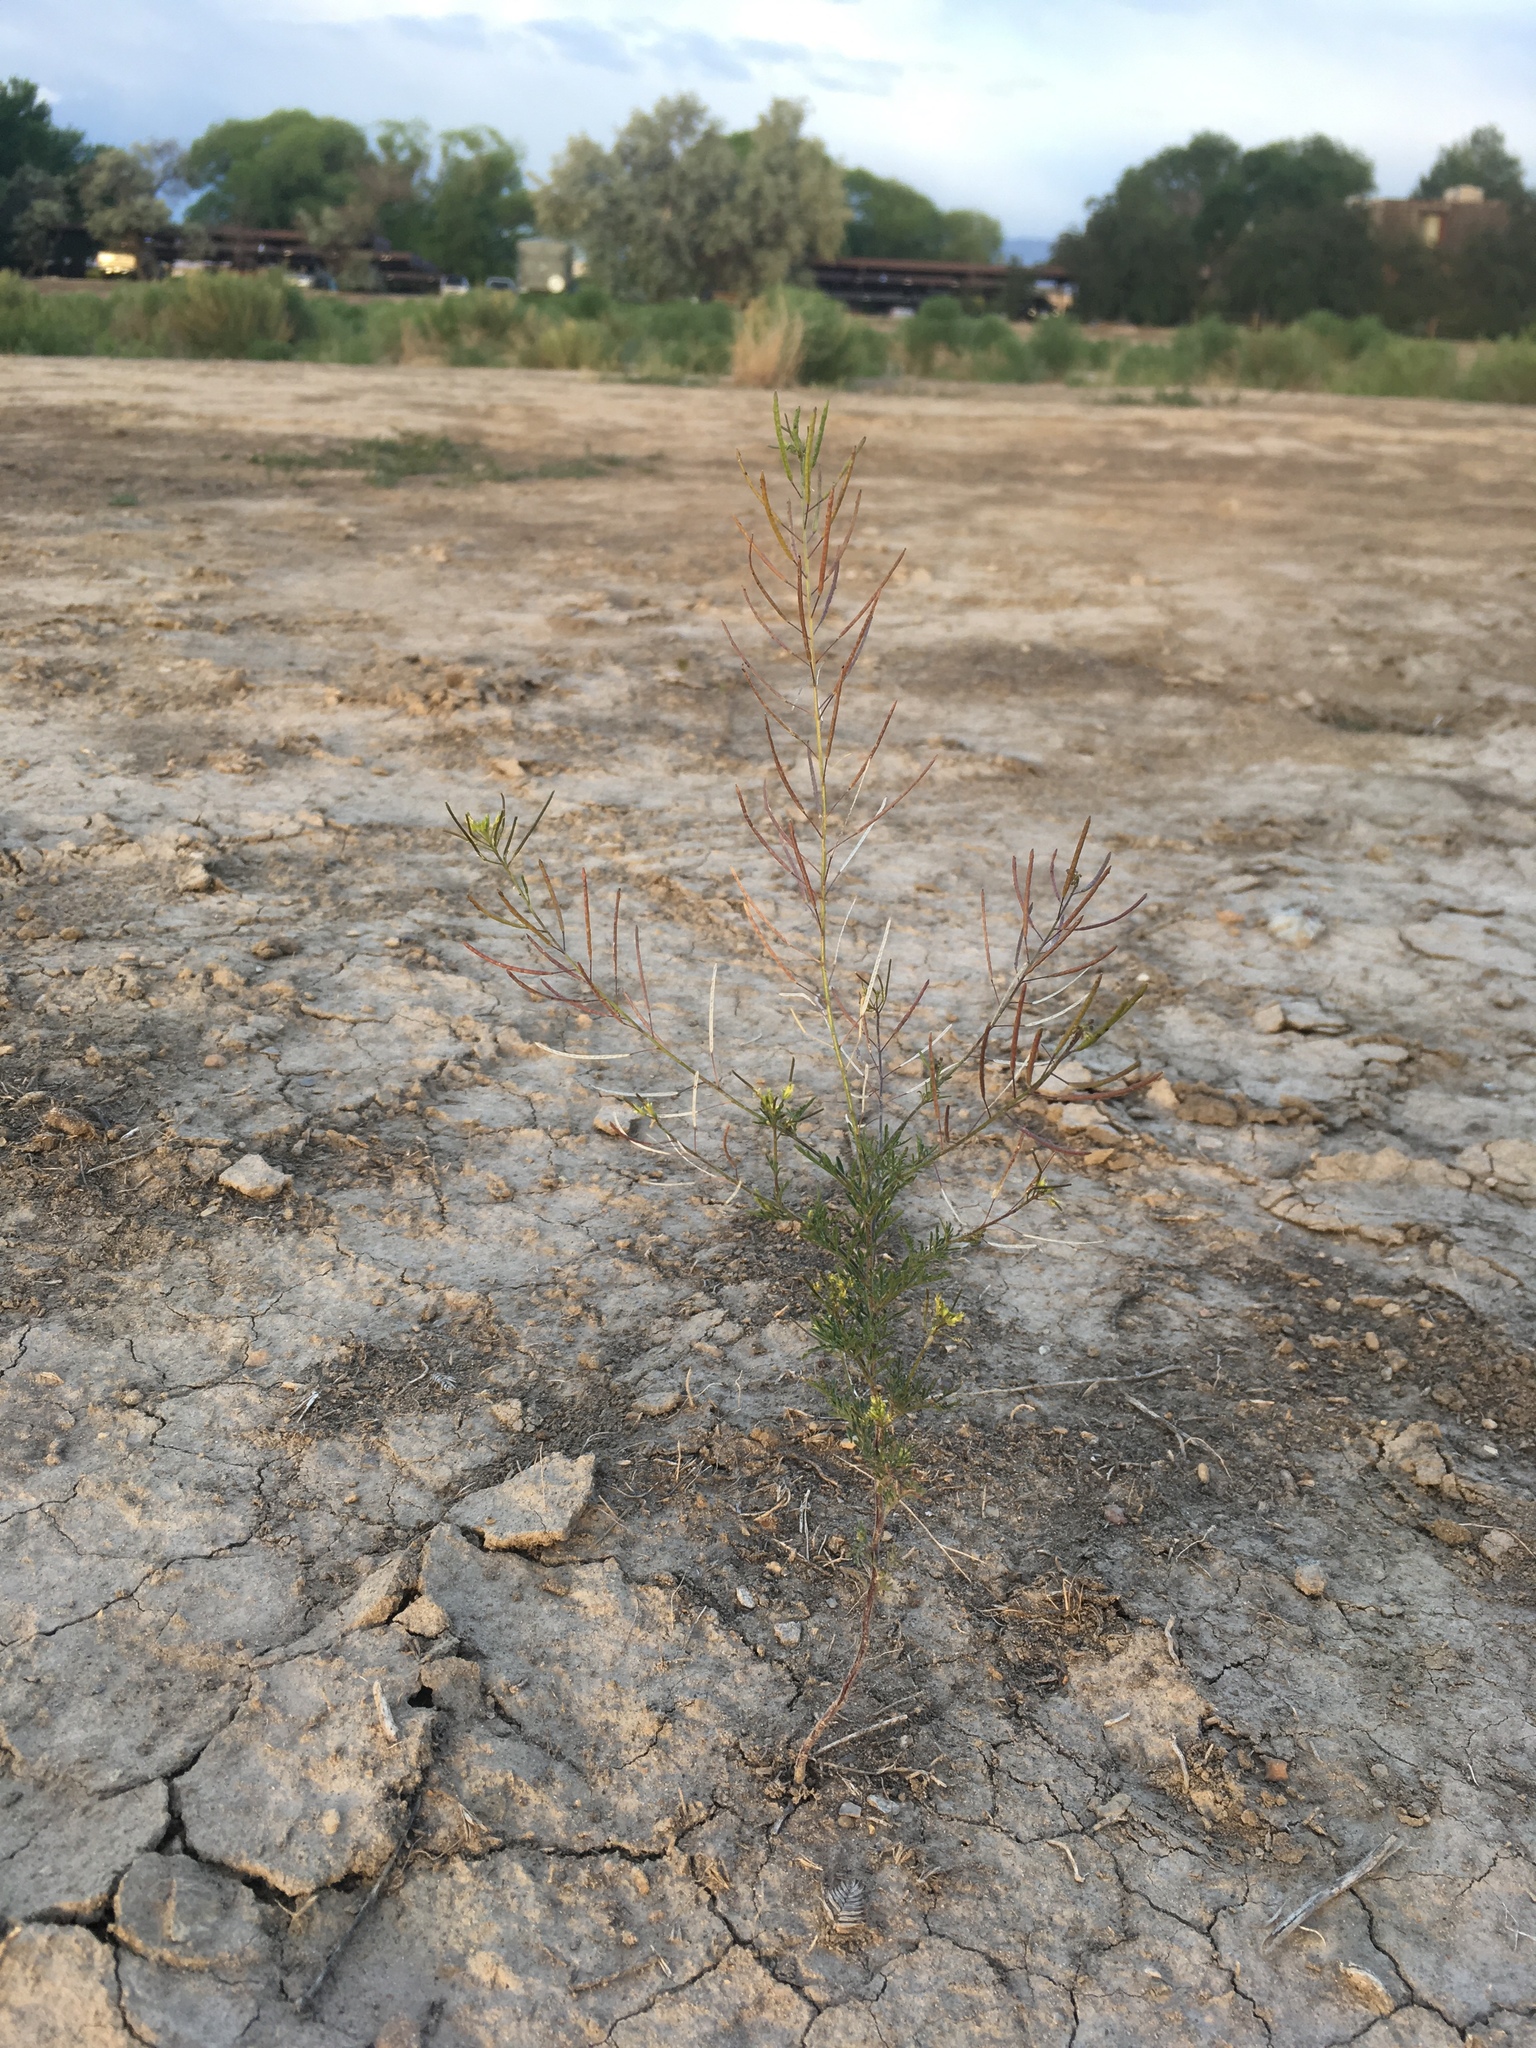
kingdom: Plantae
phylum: Tracheophyta
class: Magnoliopsida
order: Brassicales
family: Brassicaceae
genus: Descurainia
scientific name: Descurainia sophia
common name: Flixweed
